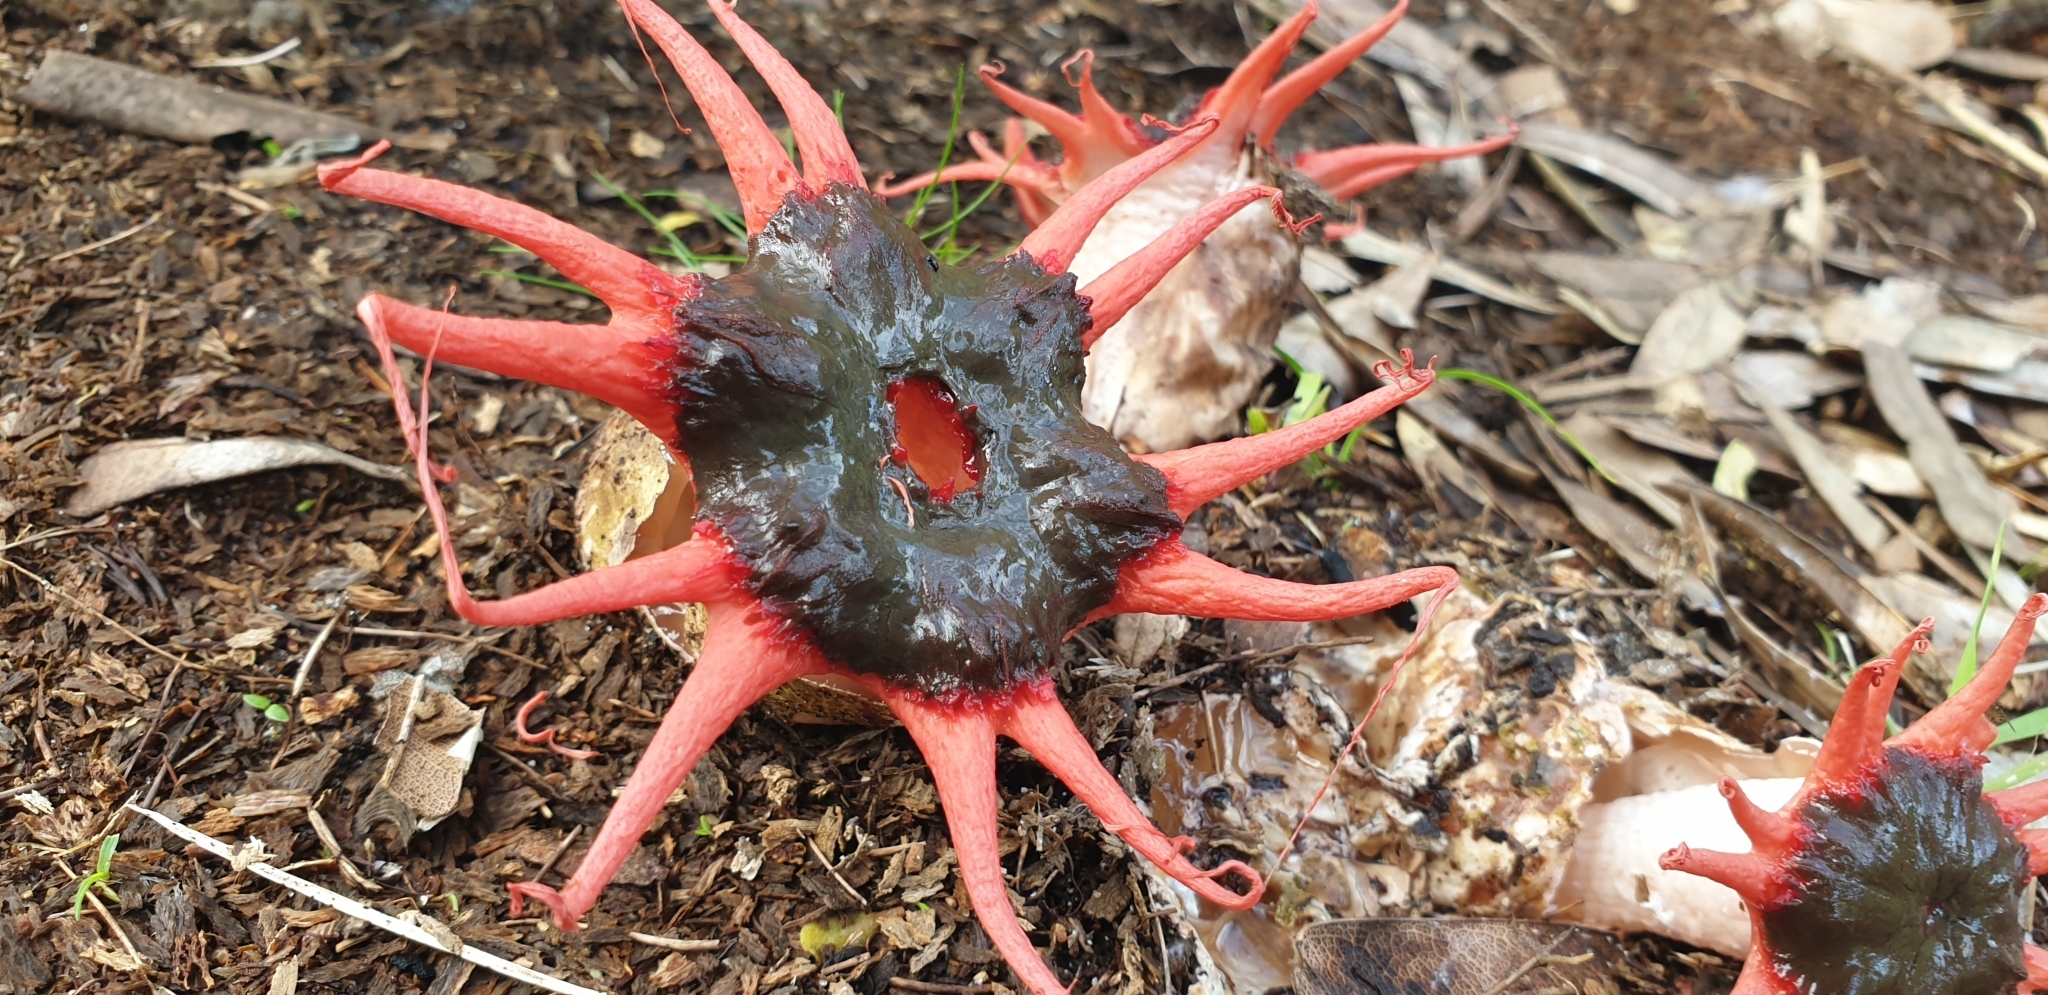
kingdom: Fungi
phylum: Basidiomycota
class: Agaricomycetes
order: Phallales
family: Phallaceae
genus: Aseroe
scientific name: Aseroe rubra
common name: Starfish fungus
